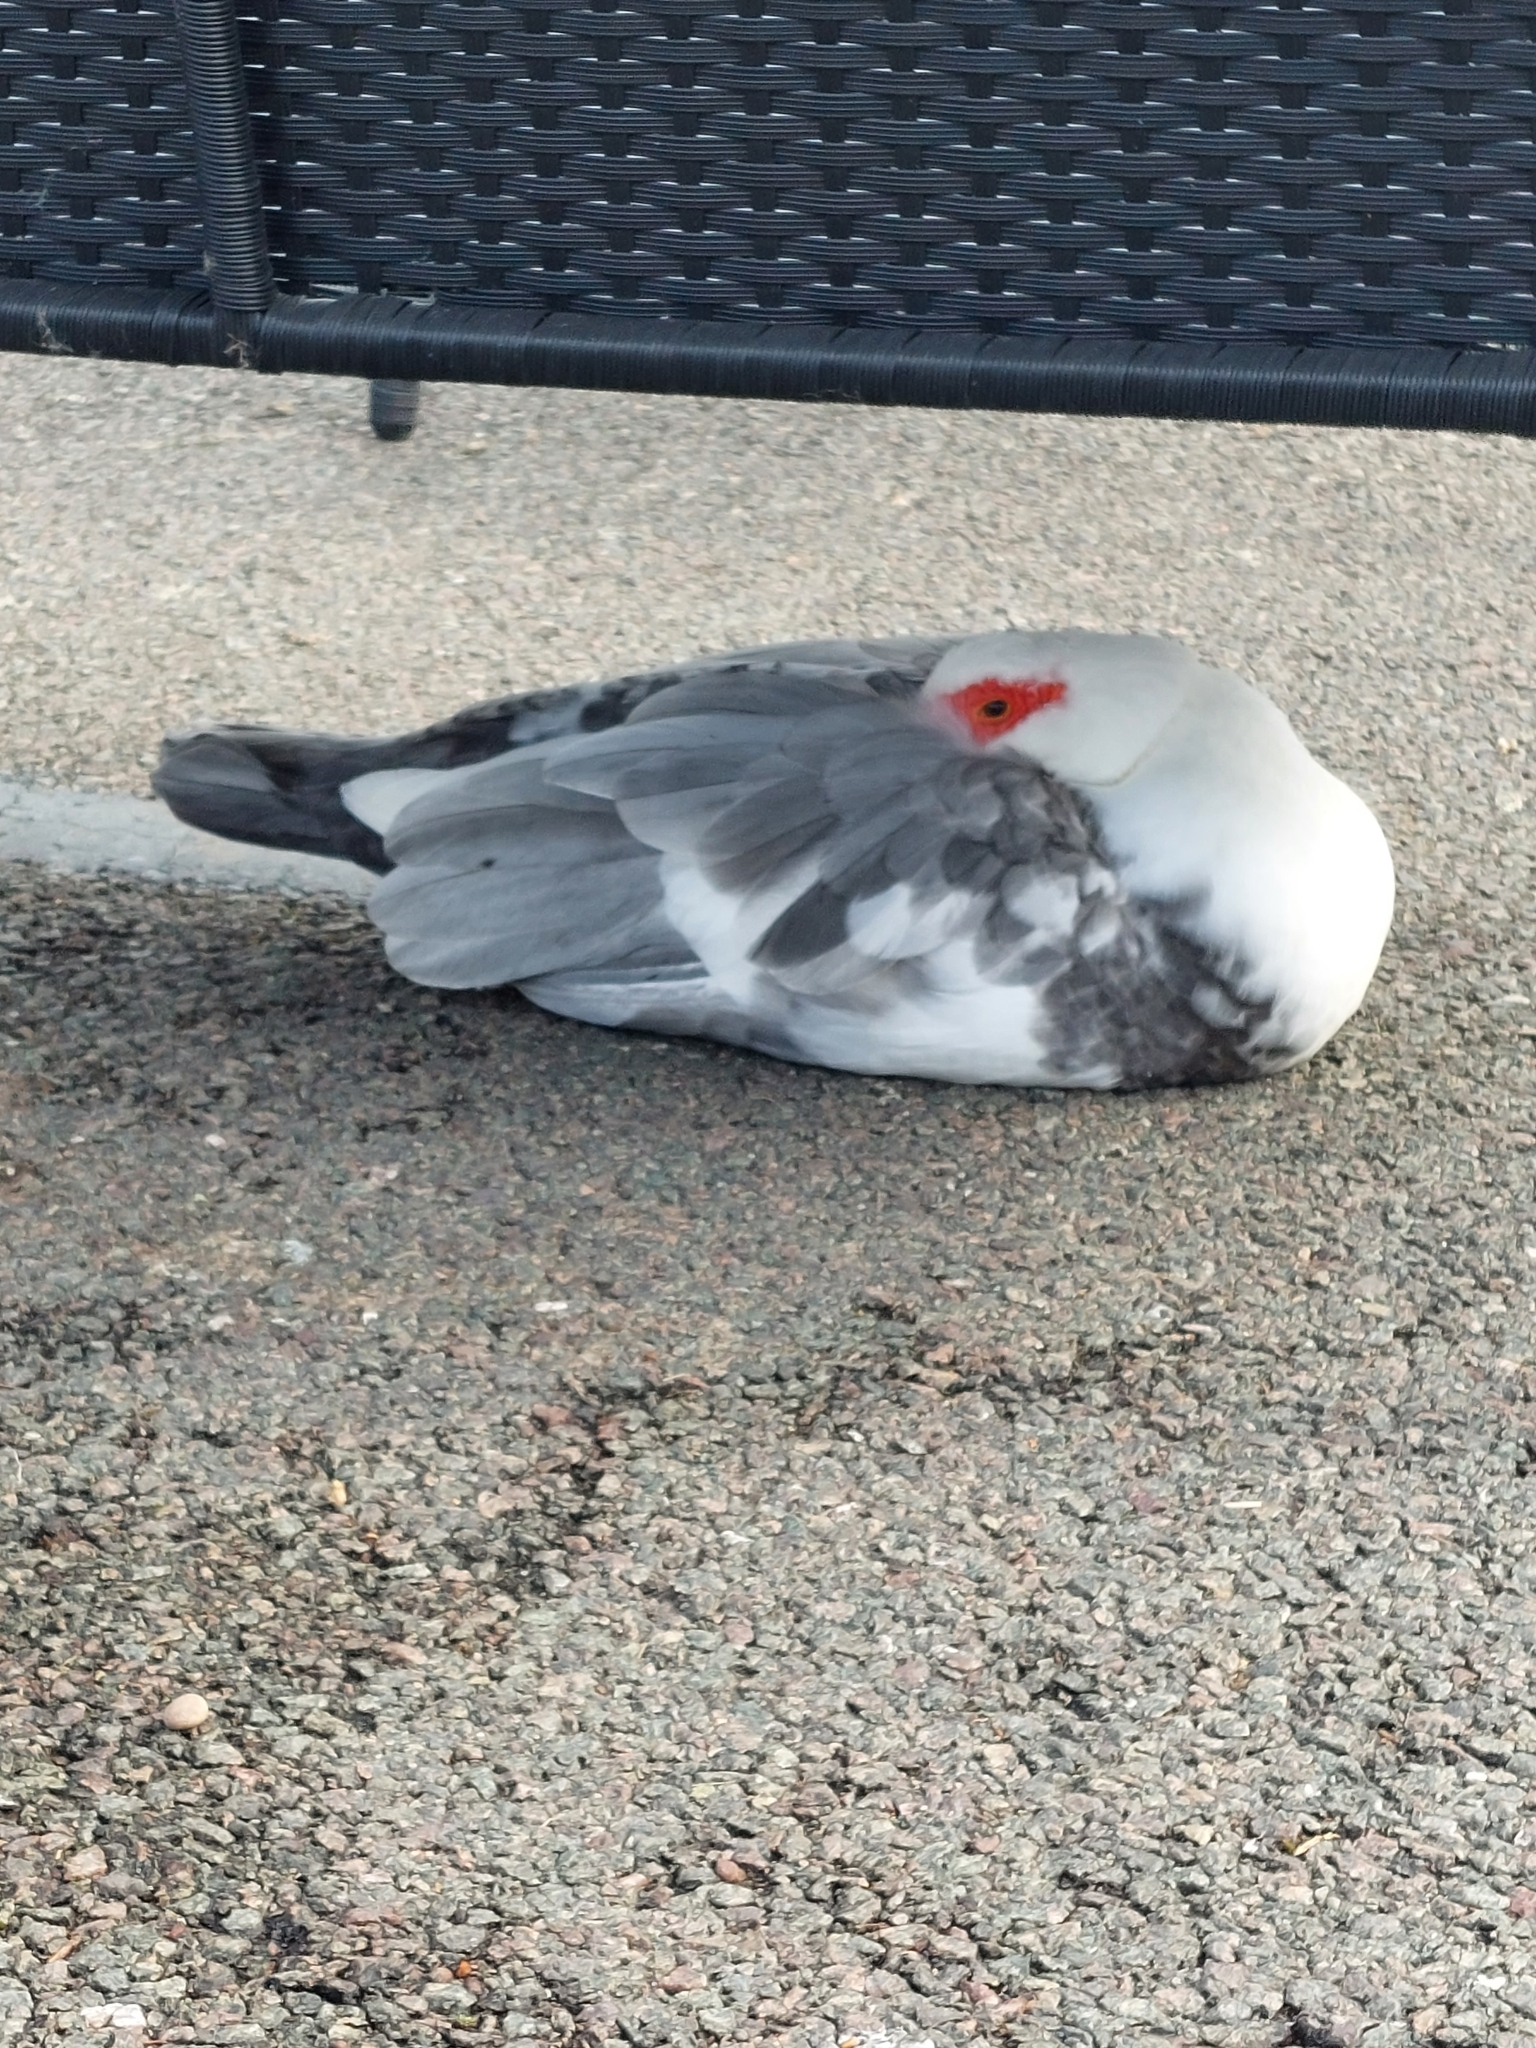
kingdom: Animalia
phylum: Chordata
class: Aves
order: Anseriformes
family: Anatidae
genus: Cairina
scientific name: Cairina moschata
